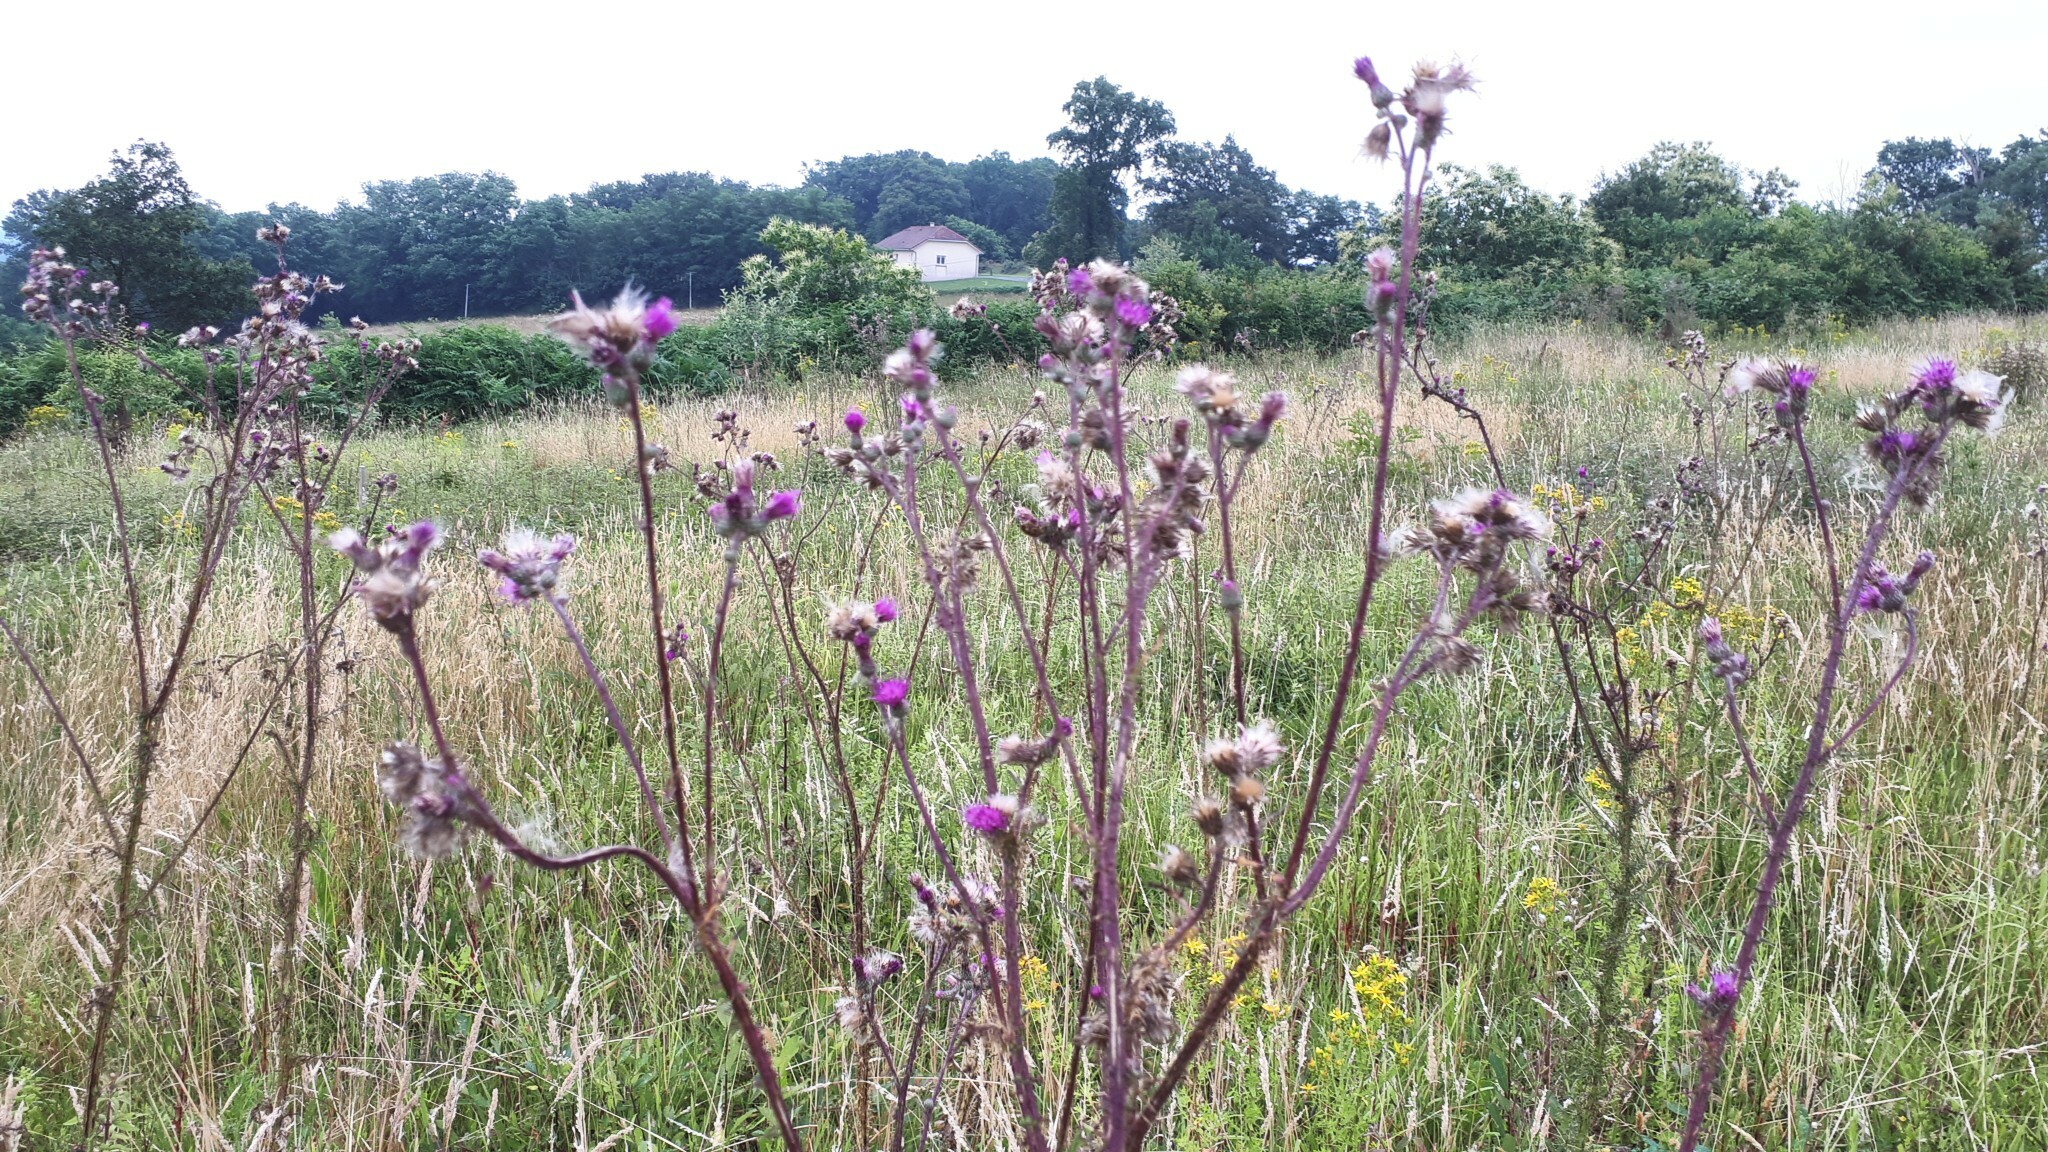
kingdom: Plantae
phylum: Tracheophyta
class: Magnoliopsida
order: Asterales
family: Asteraceae
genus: Cirsium
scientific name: Cirsium palustre
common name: Marsh thistle
